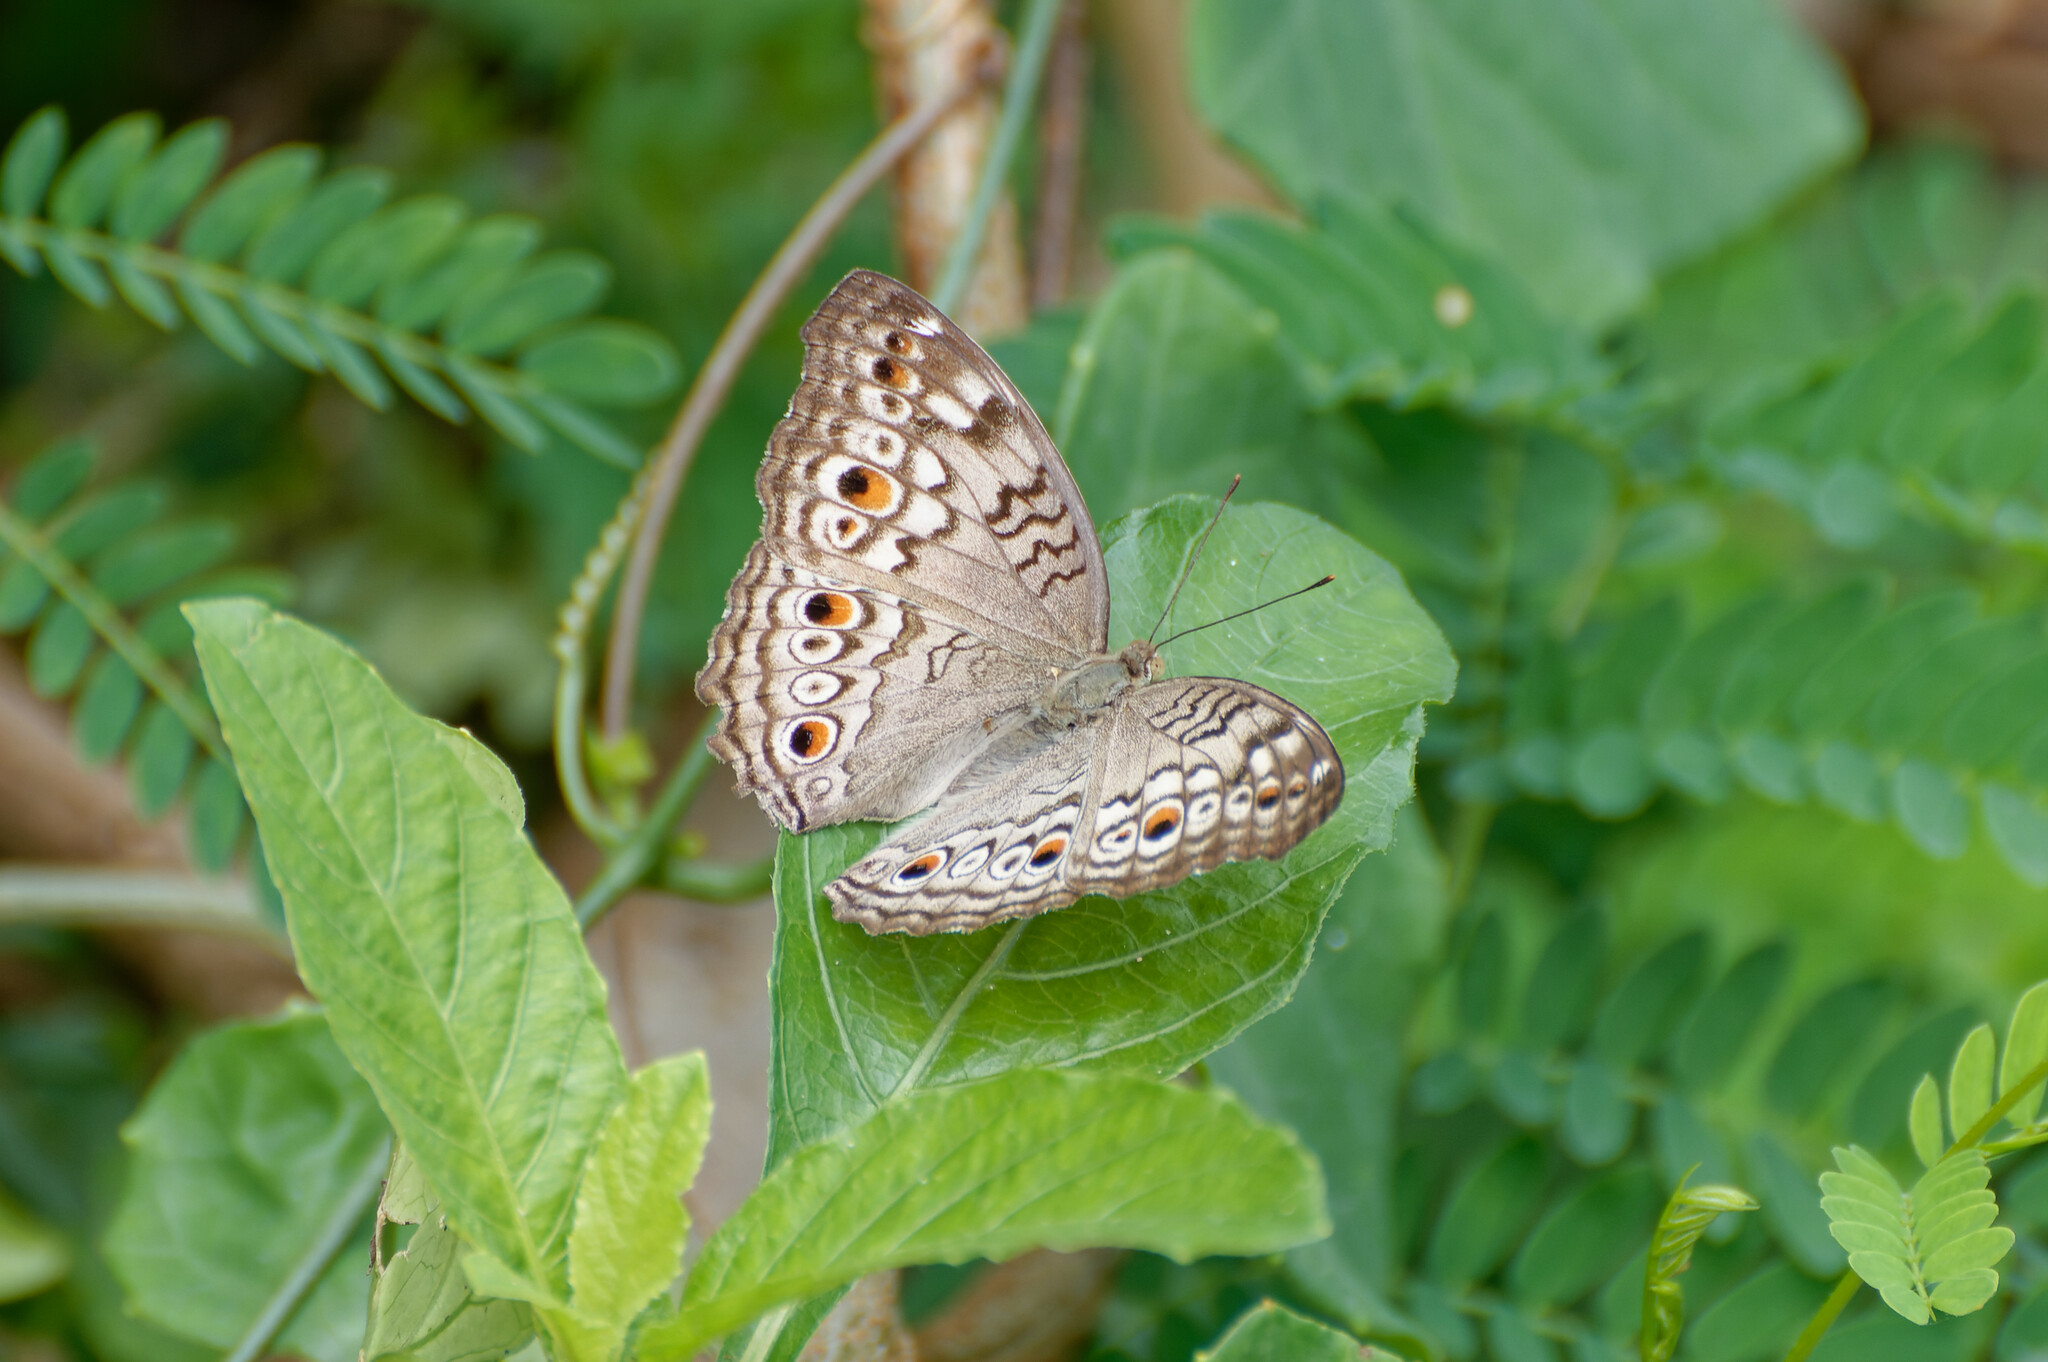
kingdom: Animalia
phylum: Arthropoda
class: Insecta
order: Lepidoptera
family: Nymphalidae
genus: Junonia
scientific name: Junonia atlites
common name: Grey pansy
